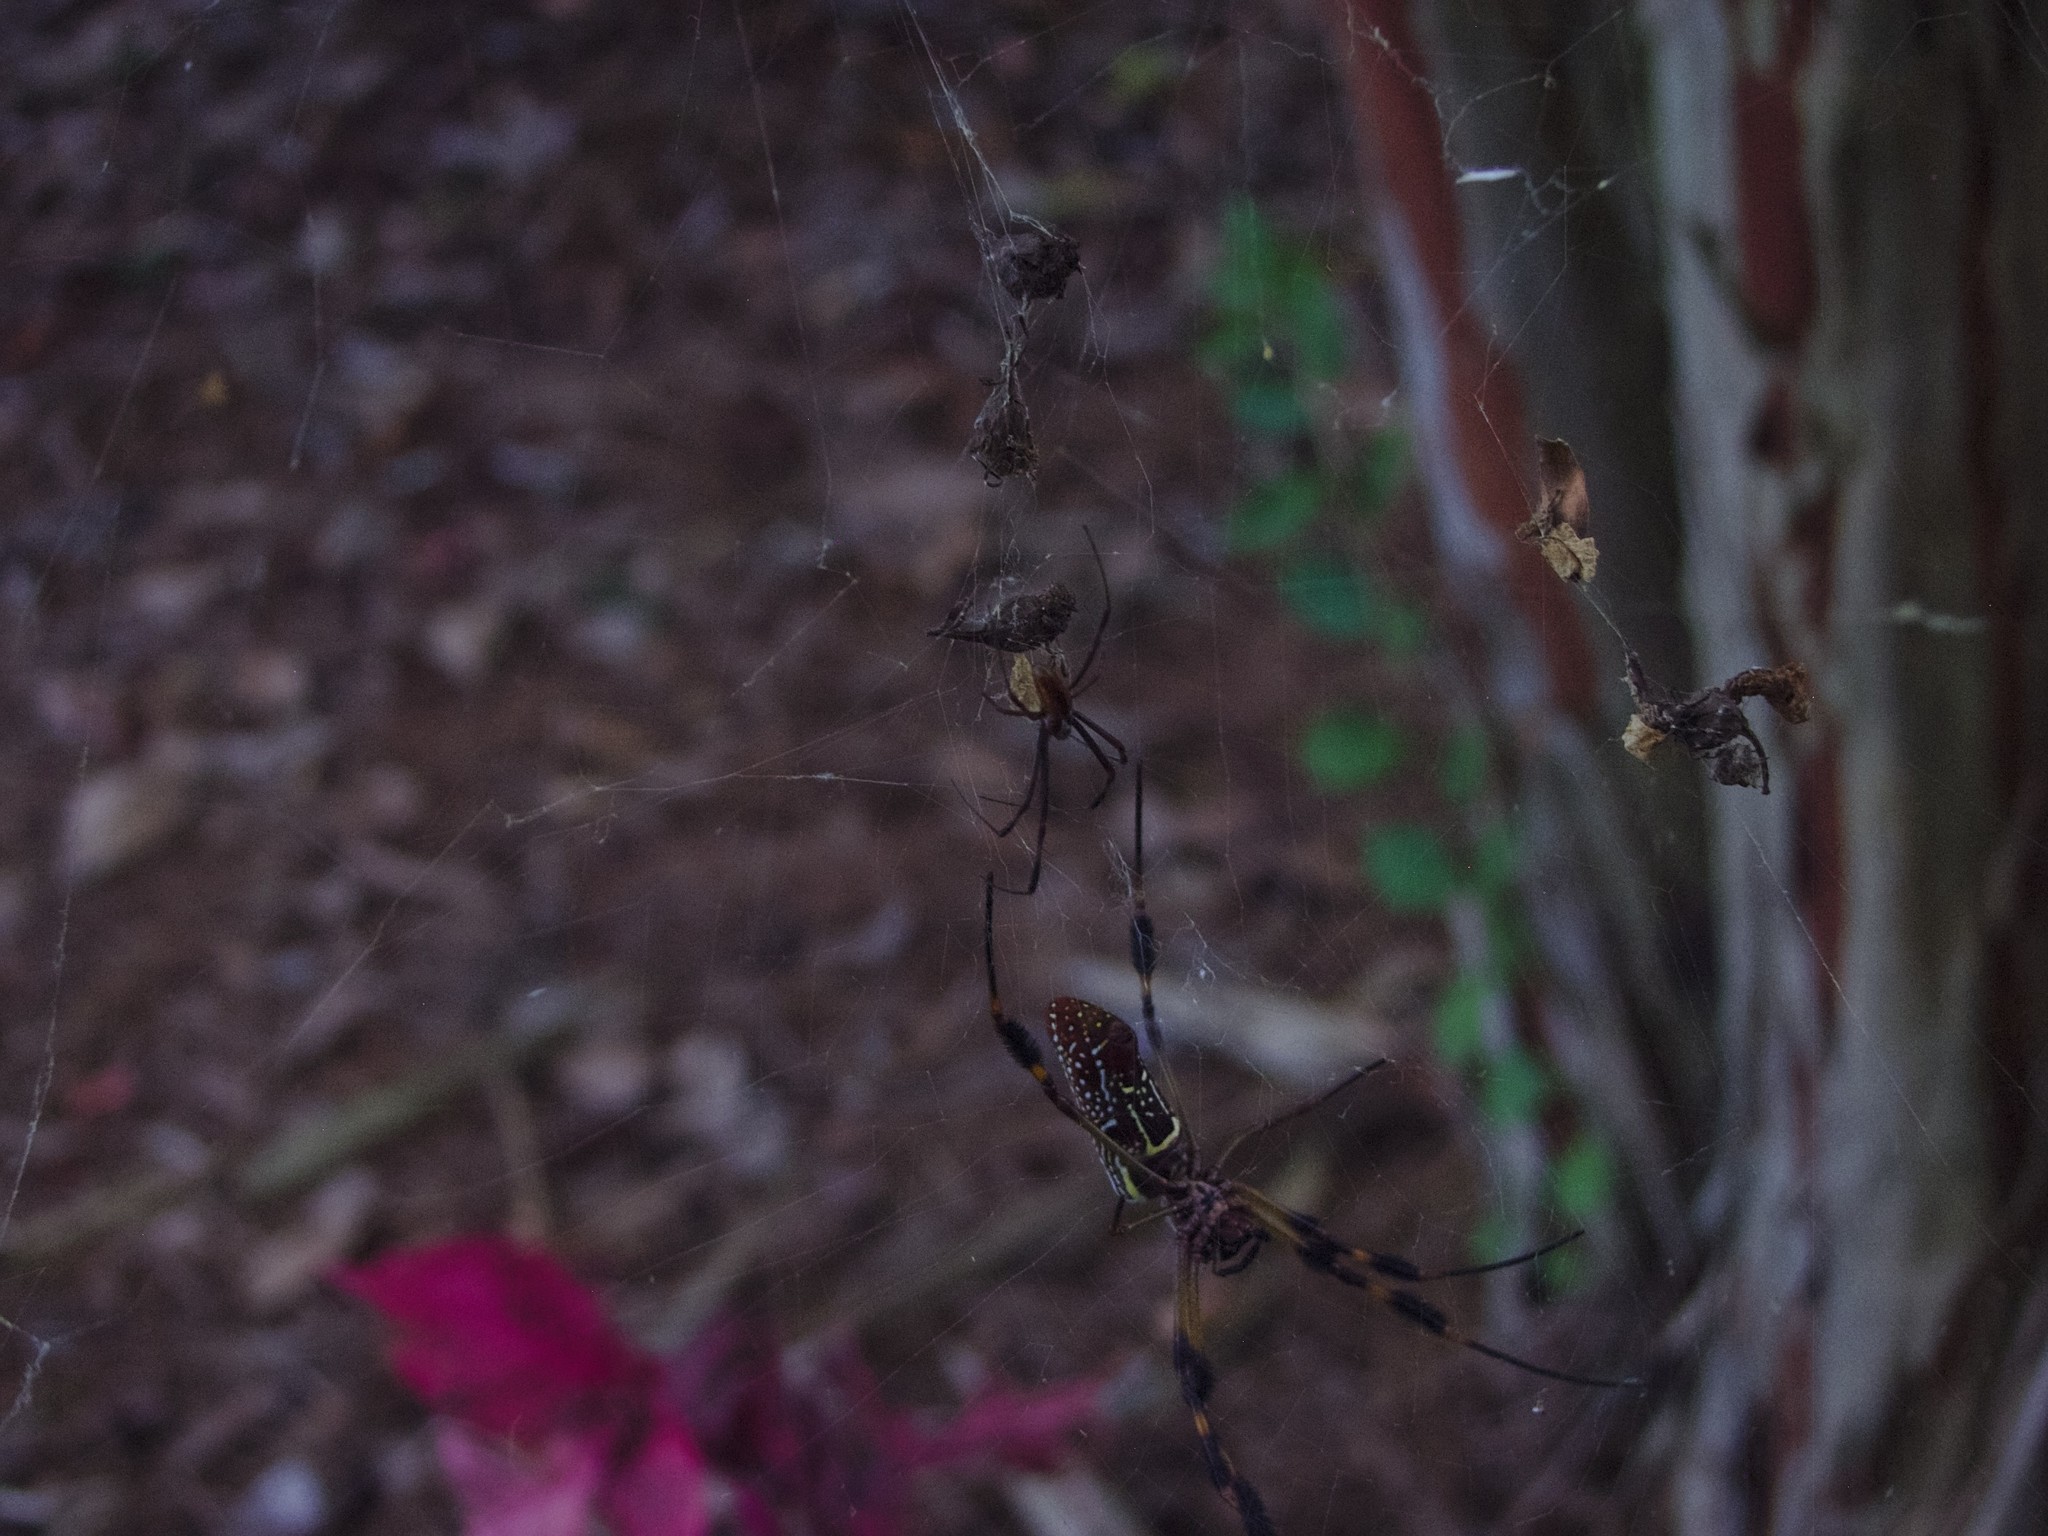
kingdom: Animalia
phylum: Arthropoda
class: Arachnida
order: Araneae
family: Araneidae
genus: Trichonephila
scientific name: Trichonephila clavipes
